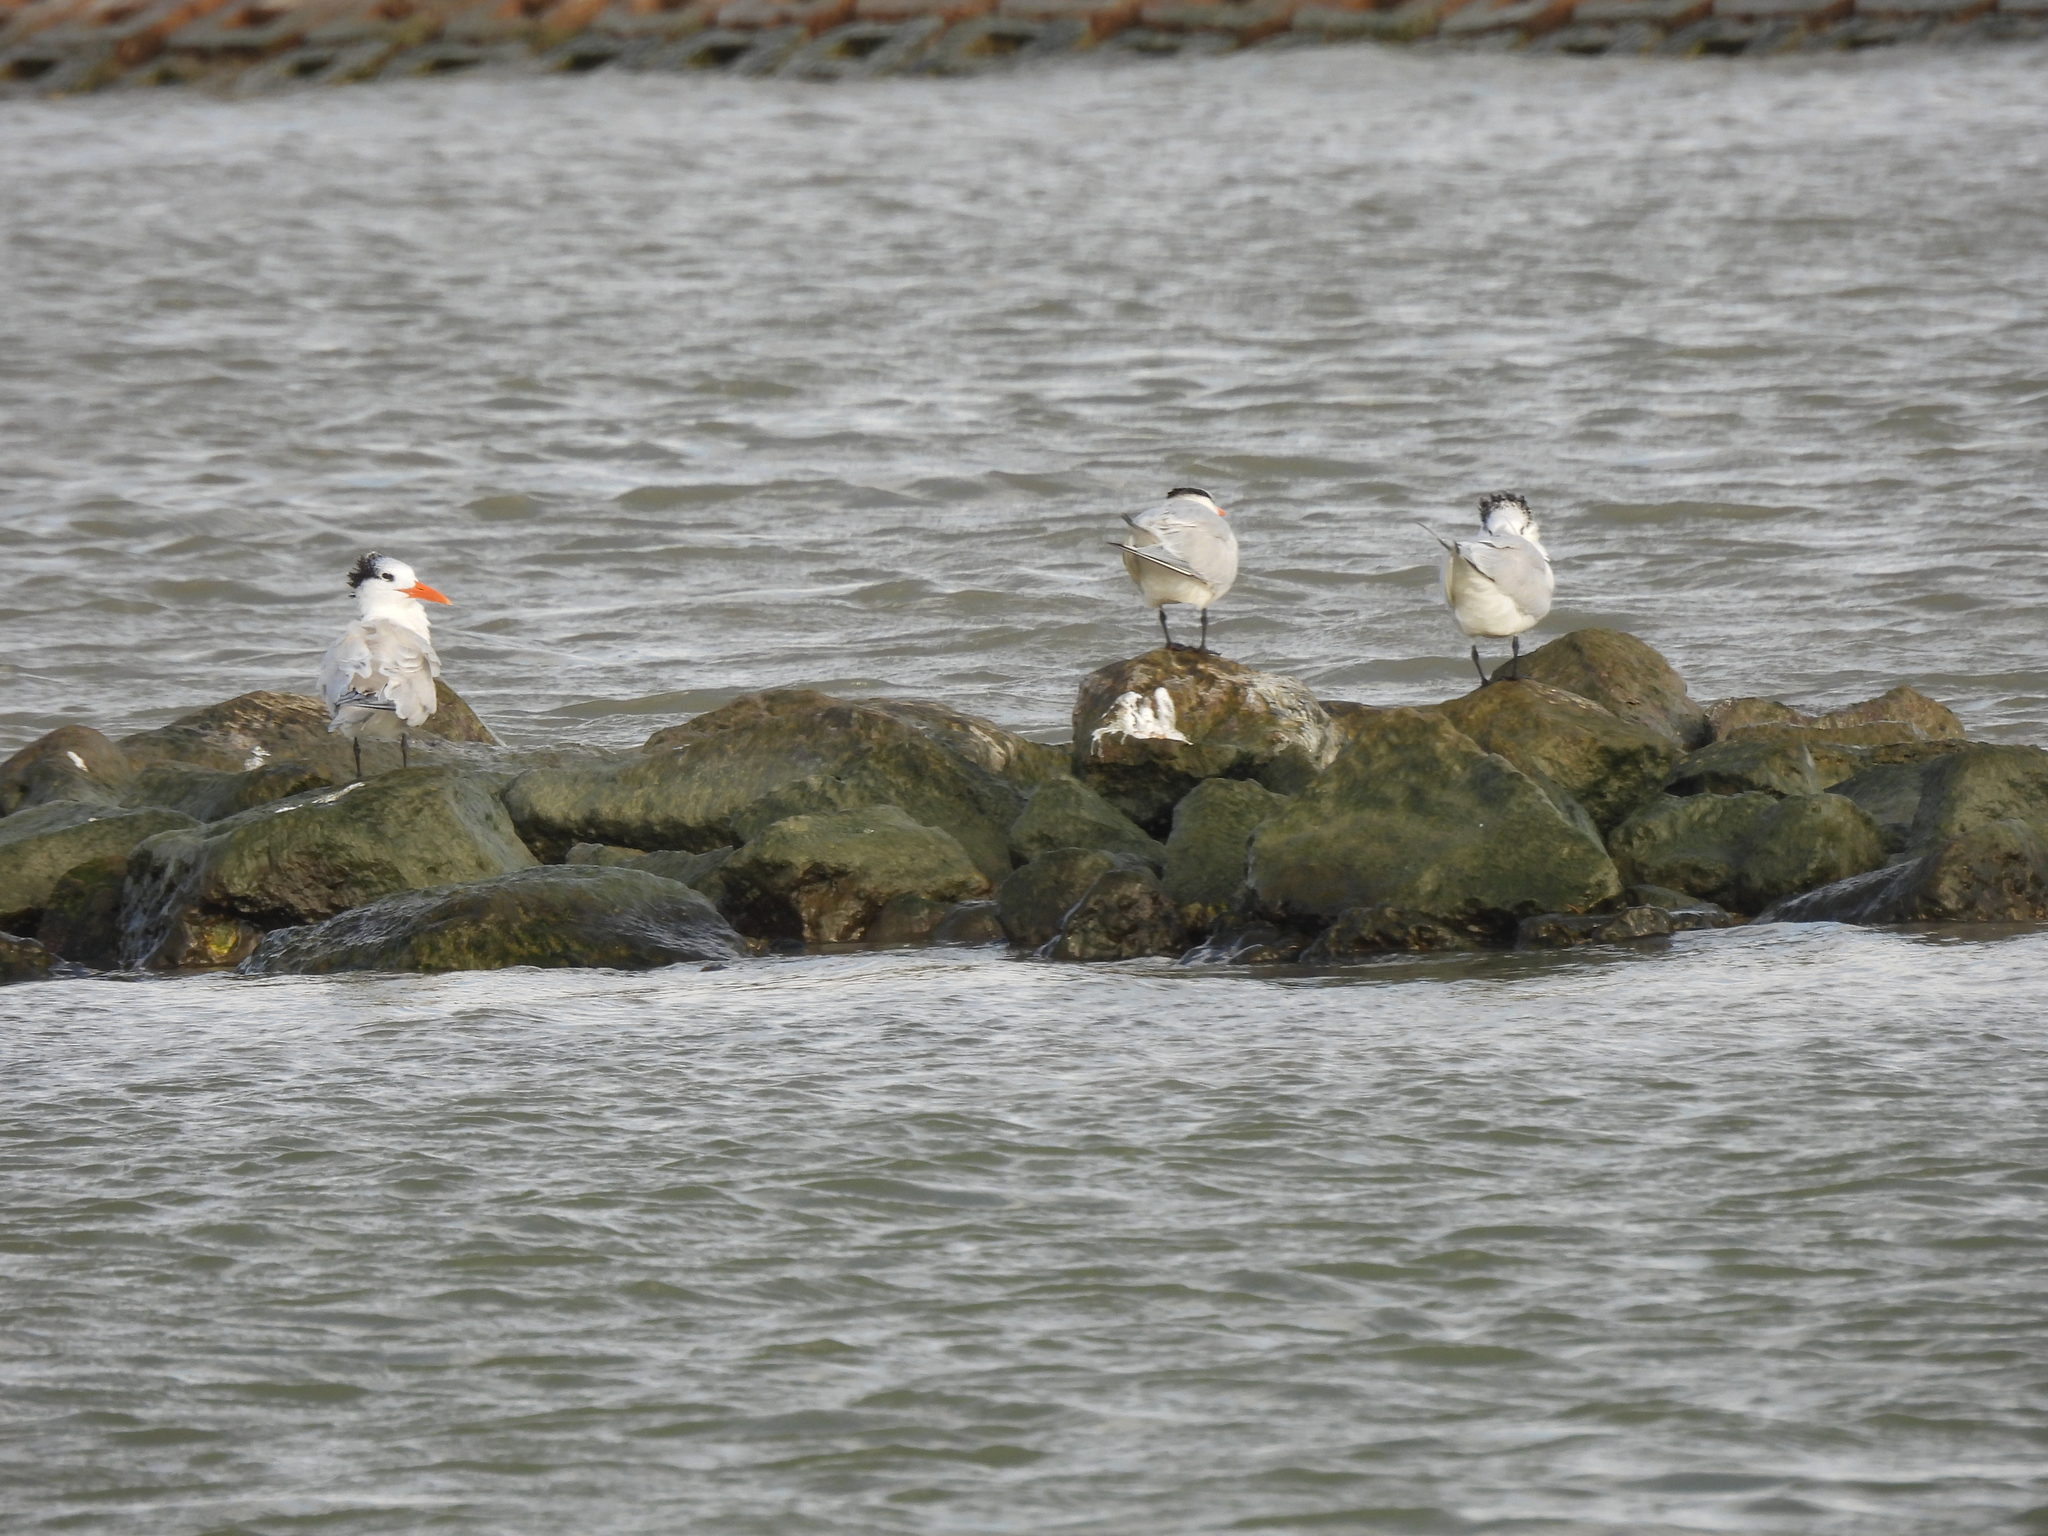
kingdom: Animalia
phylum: Chordata
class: Aves
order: Charadriiformes
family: Laridae
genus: Thalasseus
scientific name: Thalasseus maximus
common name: Royal tern
